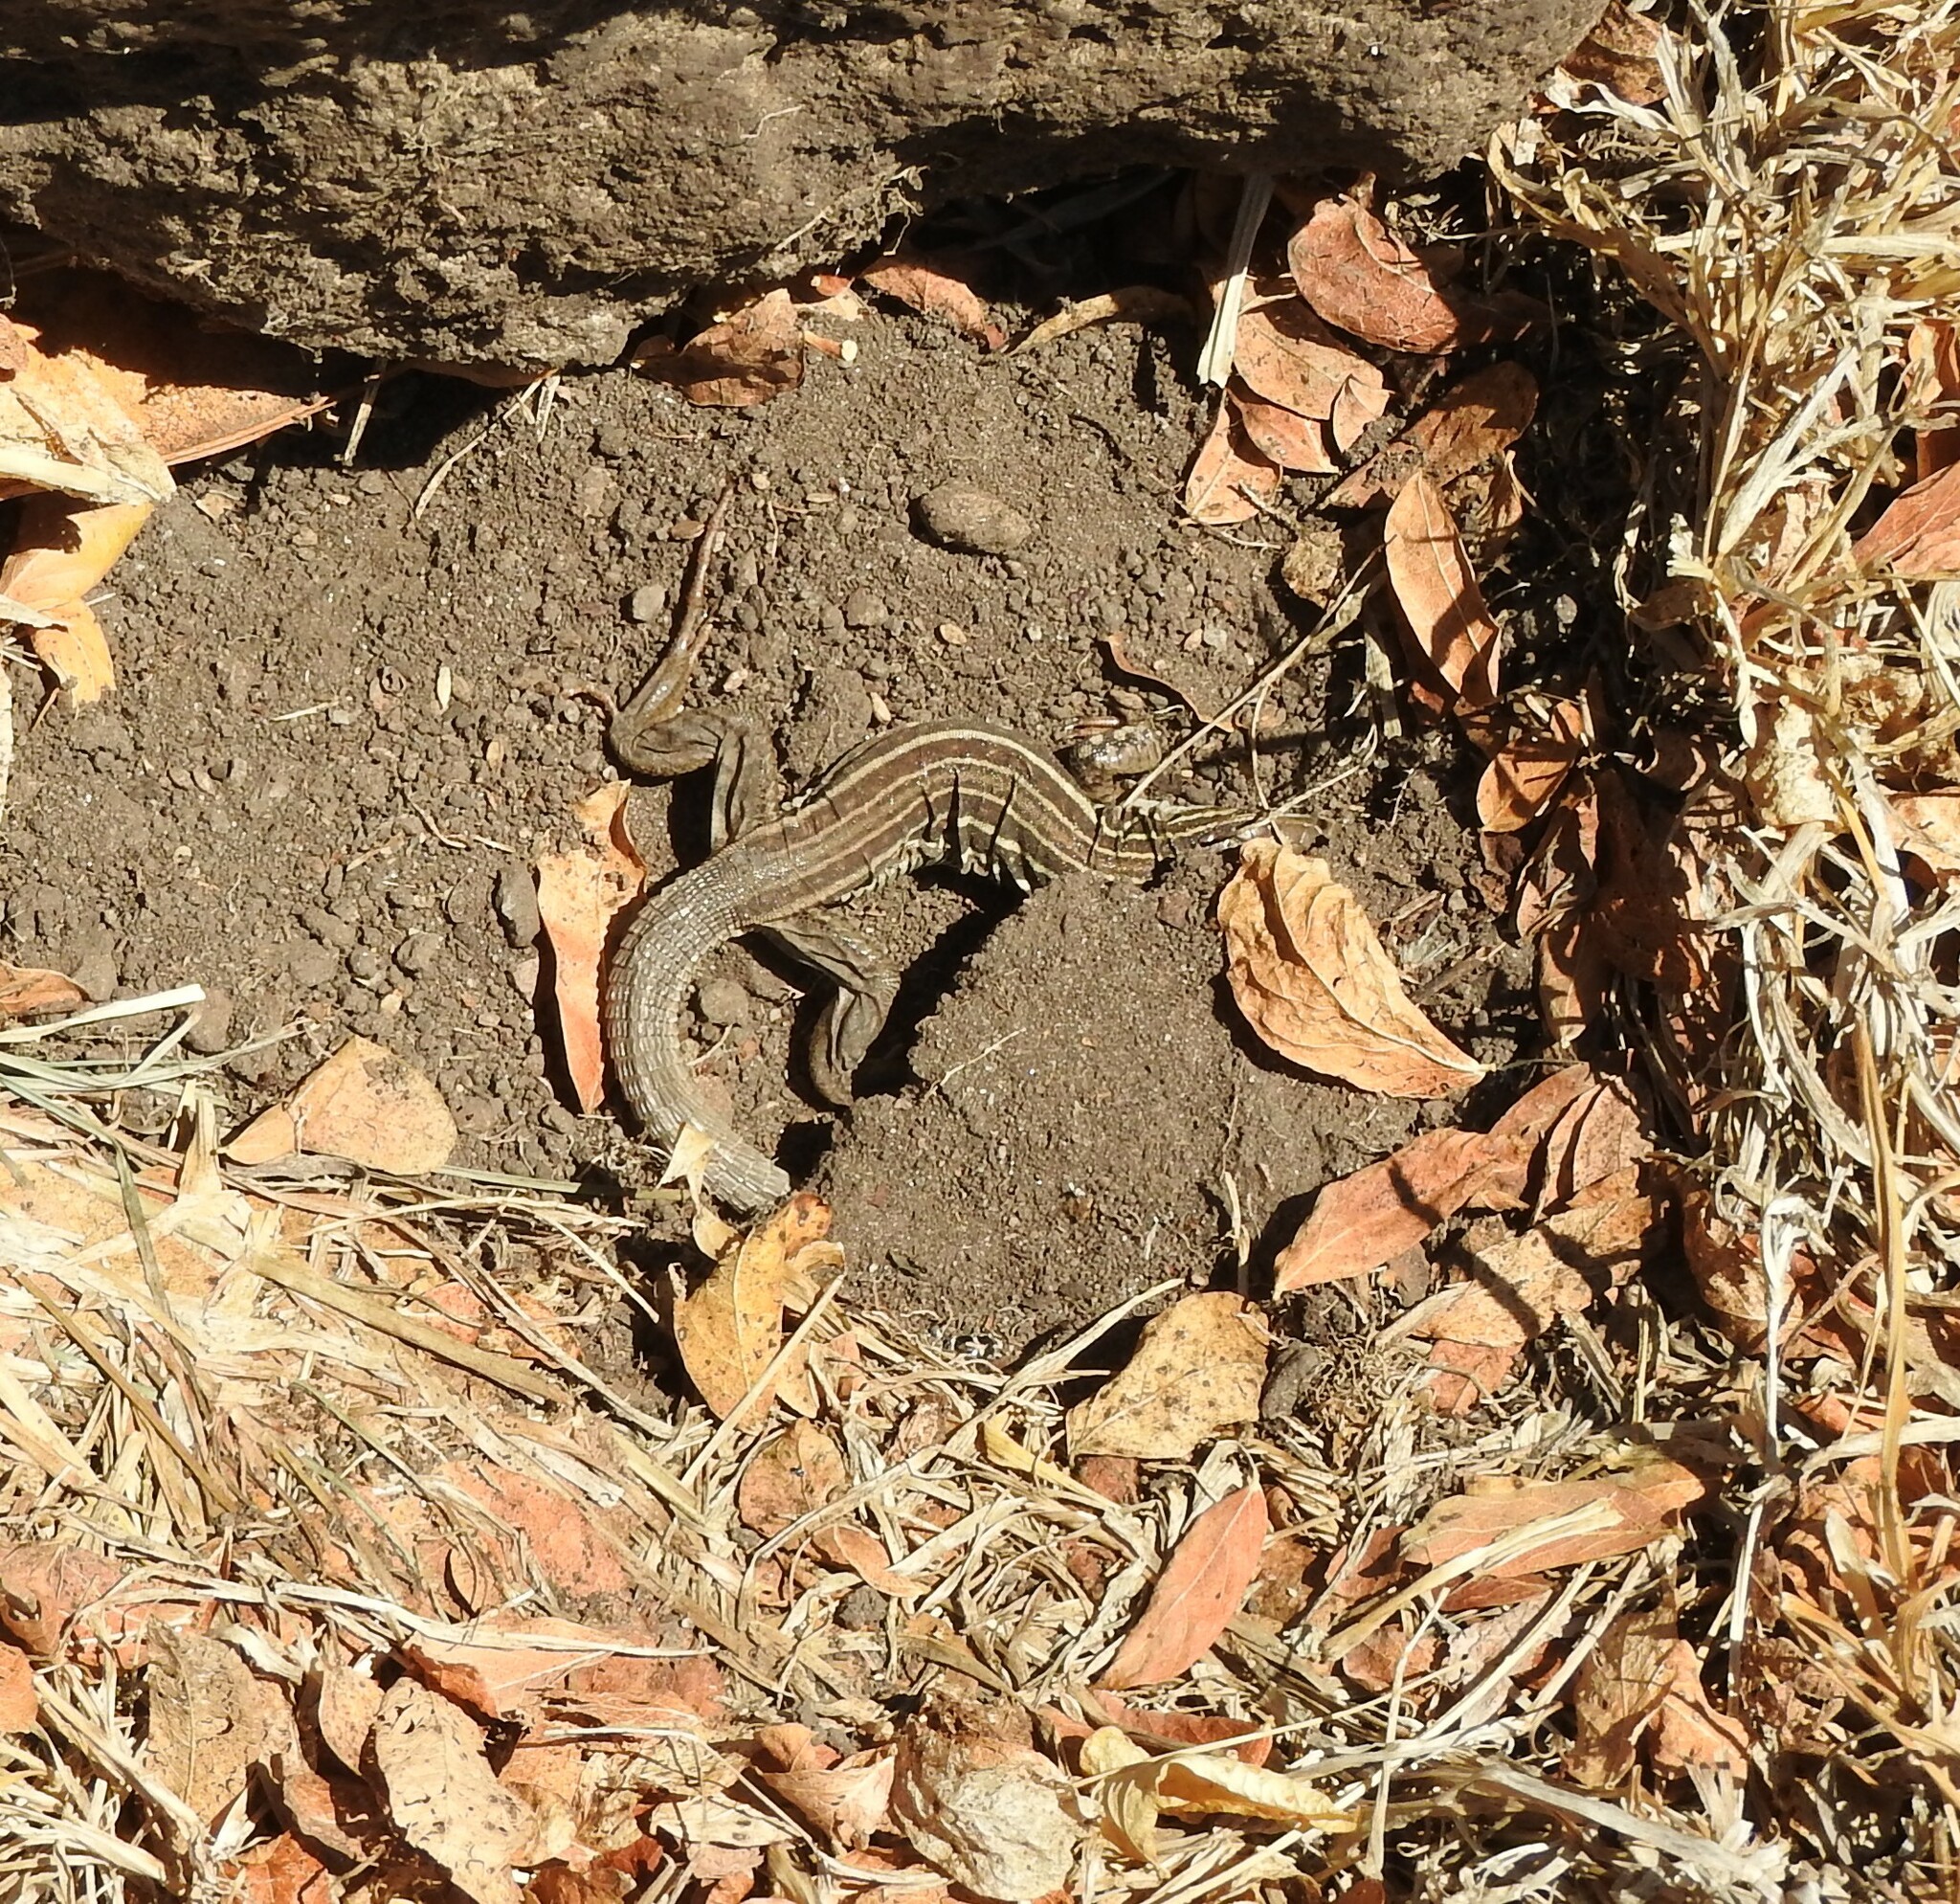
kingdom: Animalia
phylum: Chordata
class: Squamata
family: Teiidae
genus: Aspidoscelis
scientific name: Aspidoscelis gularis
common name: Eastern spotted whiptail
